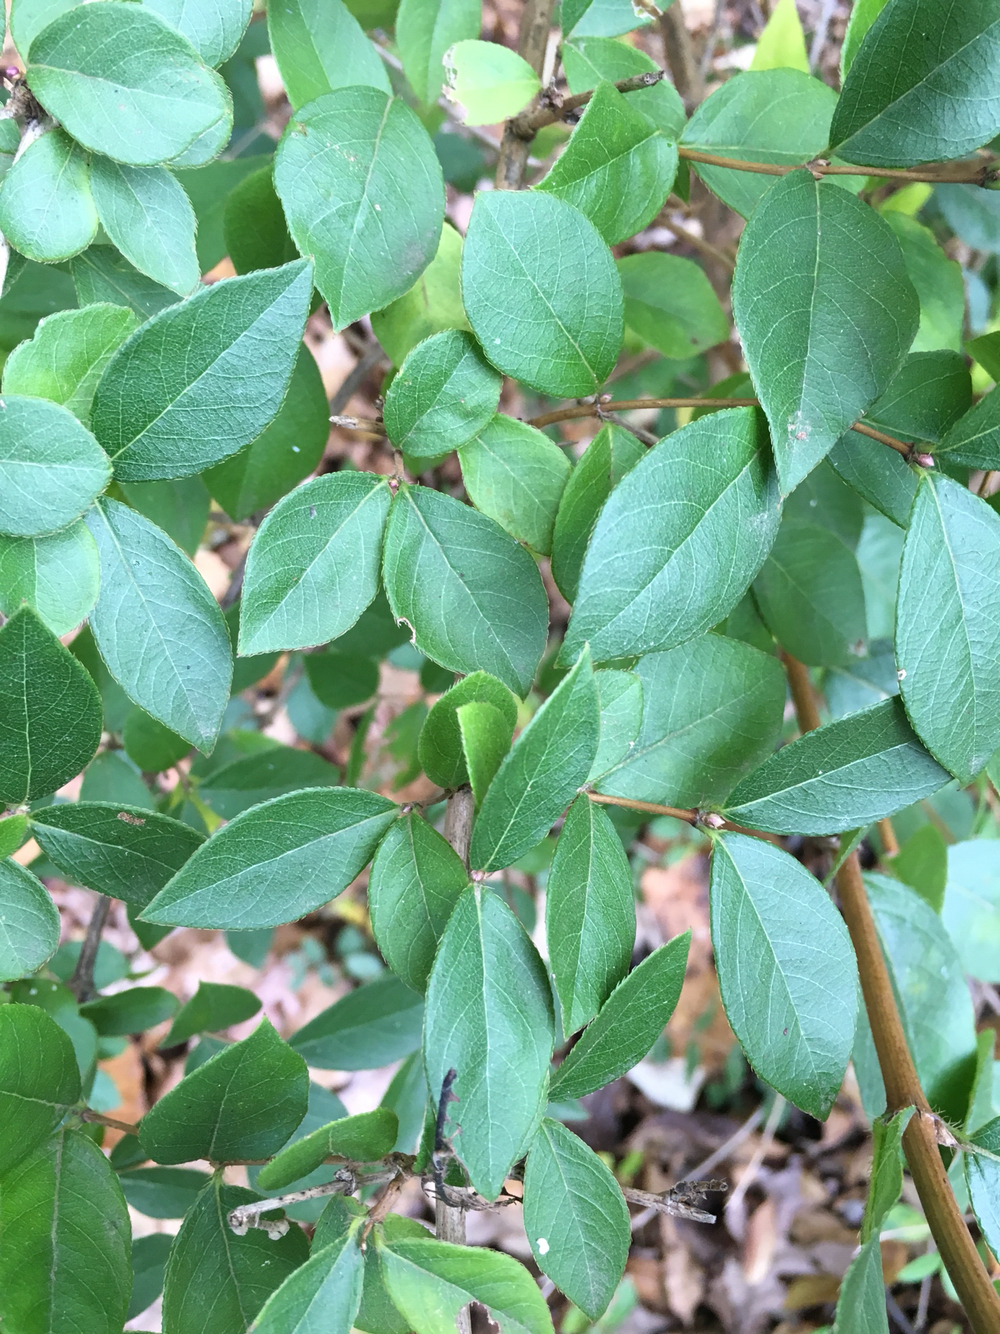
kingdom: Plantae
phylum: Tracheophyta
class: Magnoliopsida
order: Dipsacales
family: Caprifoliaceae
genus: Lonicera
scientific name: Lonicera fragrantissima
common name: Fragrant honeysuckle
